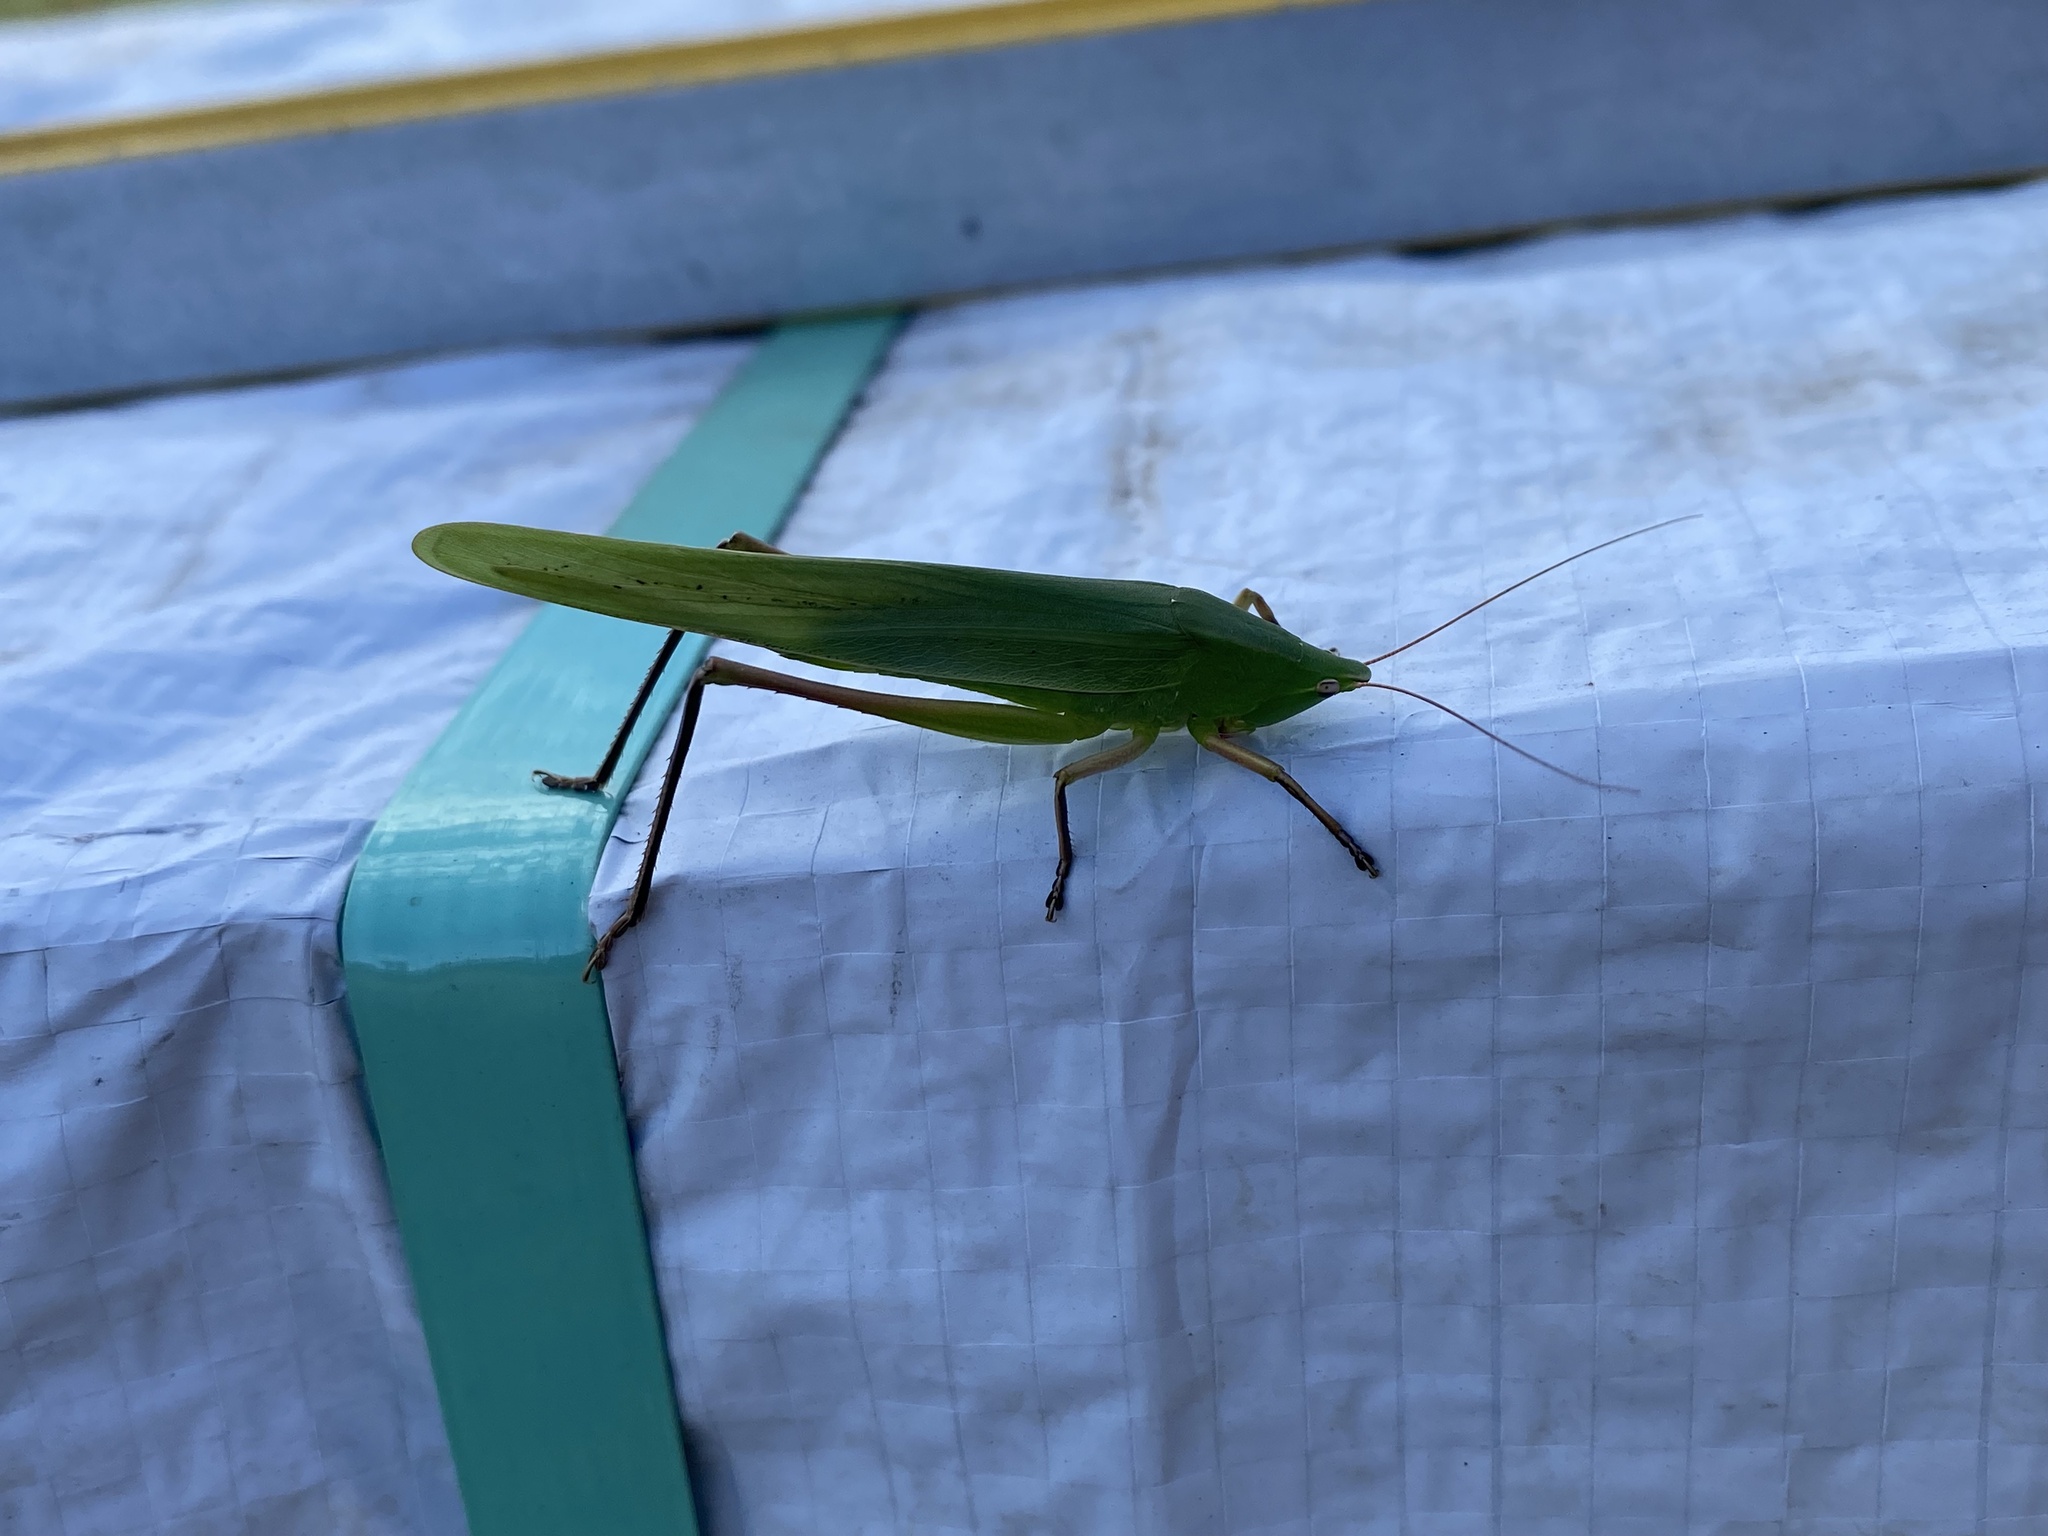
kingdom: Animalia
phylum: Arthropoda
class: Insecta
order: Orthoptera
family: Tettigoniidae
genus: Neoconocephalus
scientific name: Neoconocephalus triops
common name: Broad-tipped conehead
